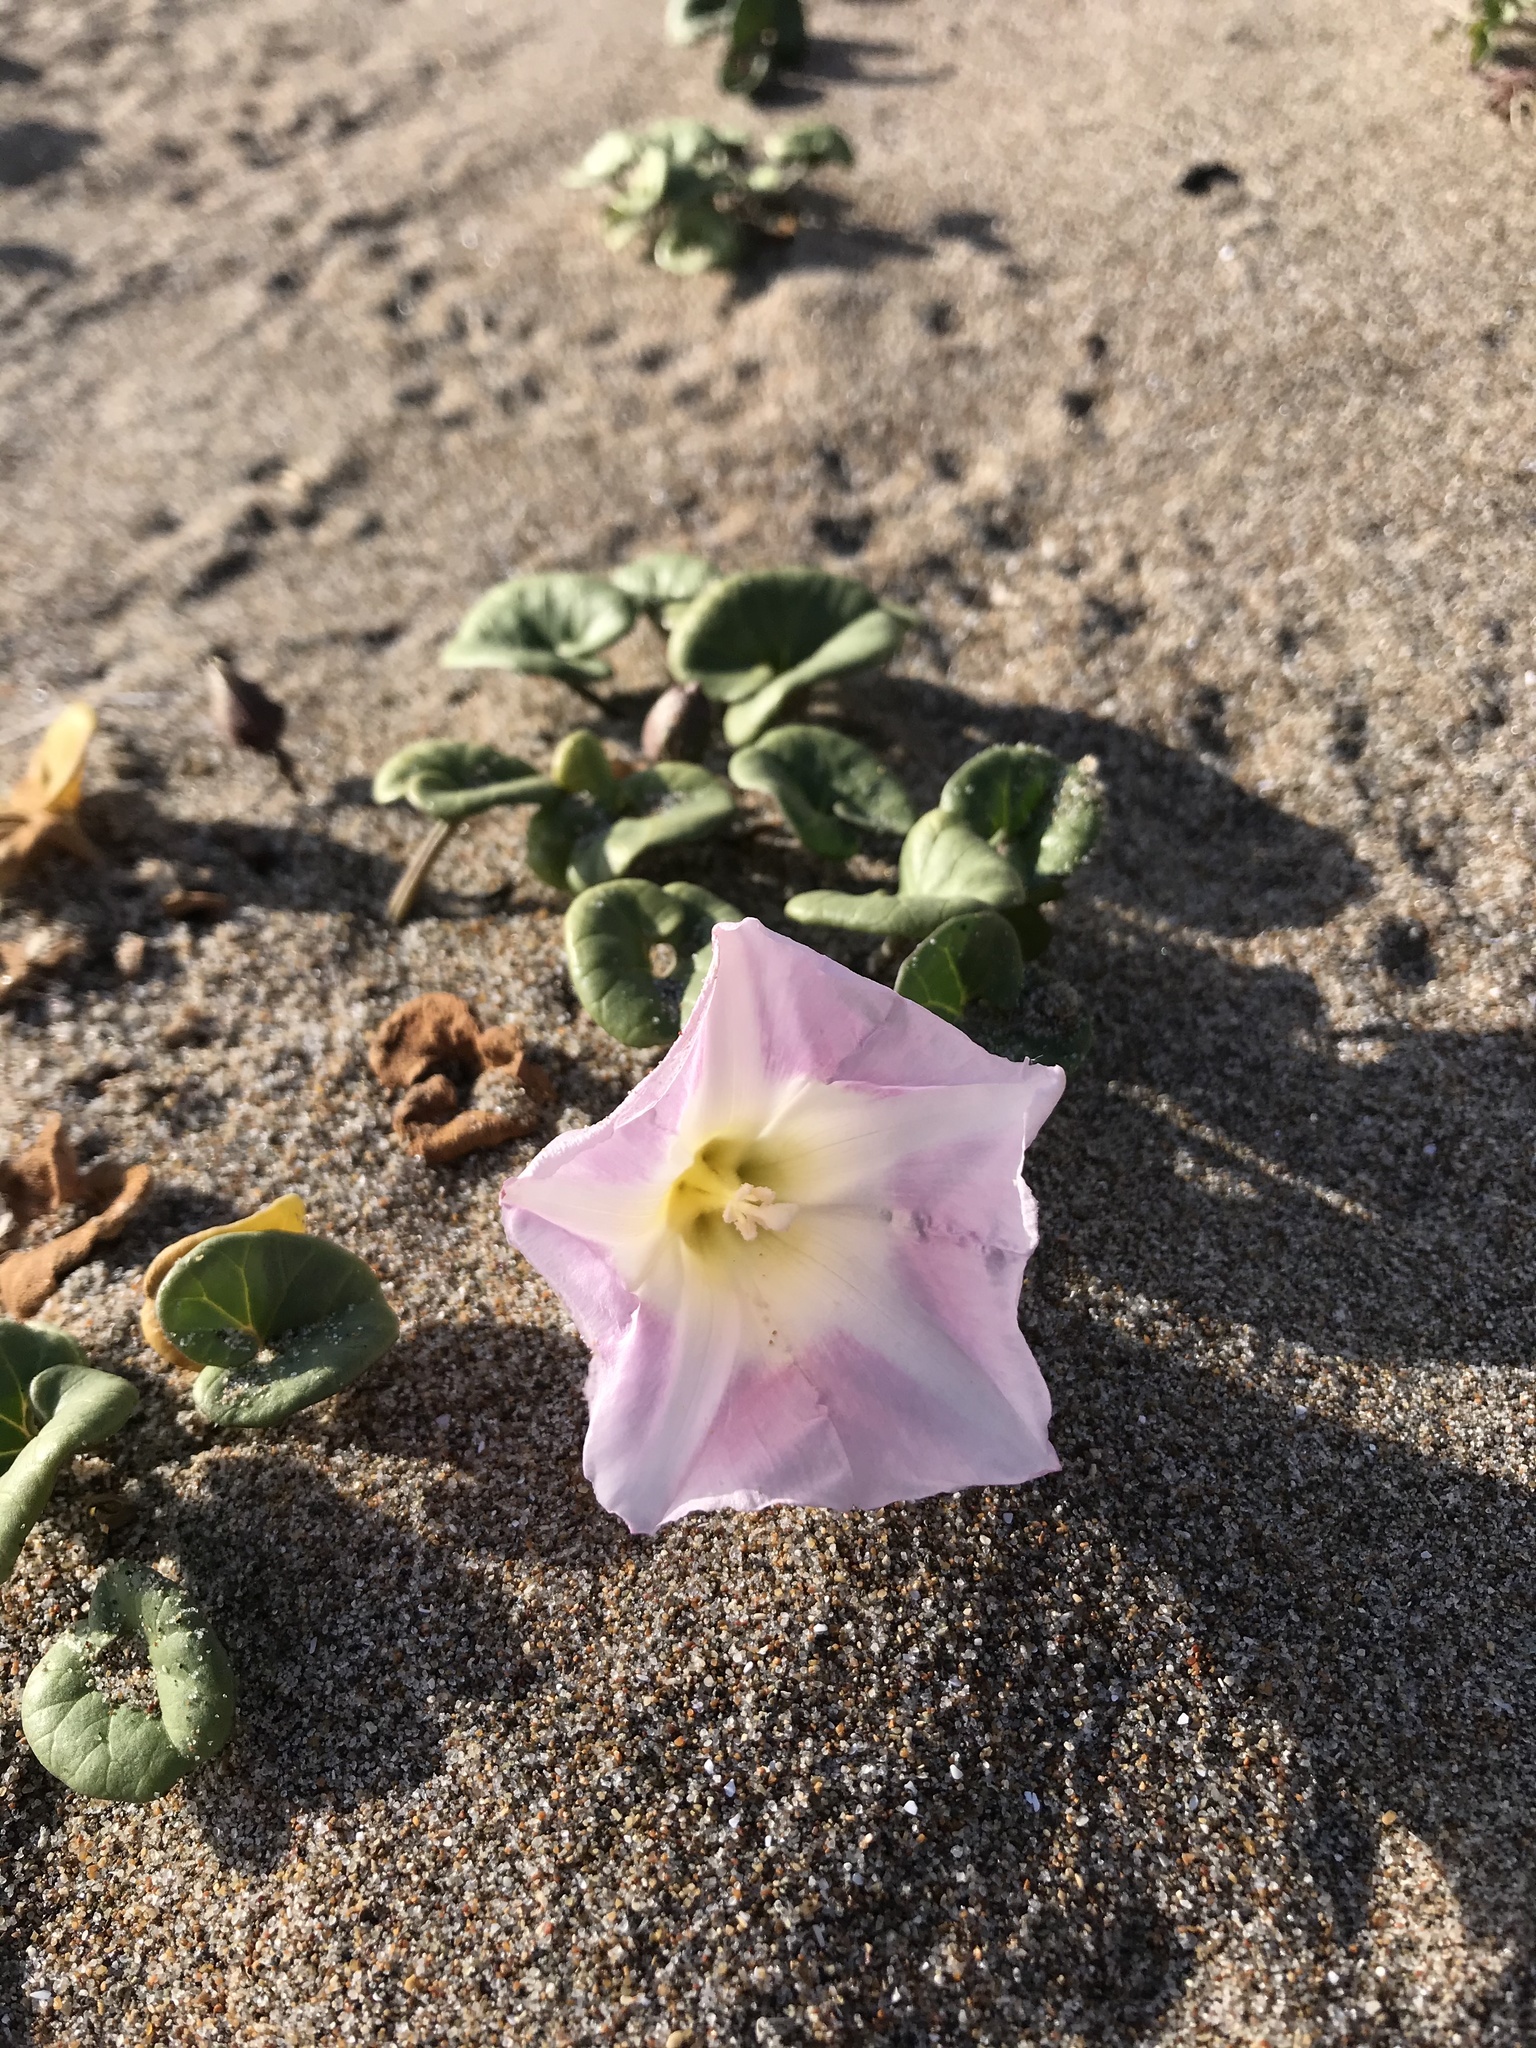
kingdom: Plantae
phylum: Tracheophyta
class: Magnoliopsida
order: Solanales
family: Convolvulaceae
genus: Calystegia
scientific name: Calystegia soldanella
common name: Sea bindweed
